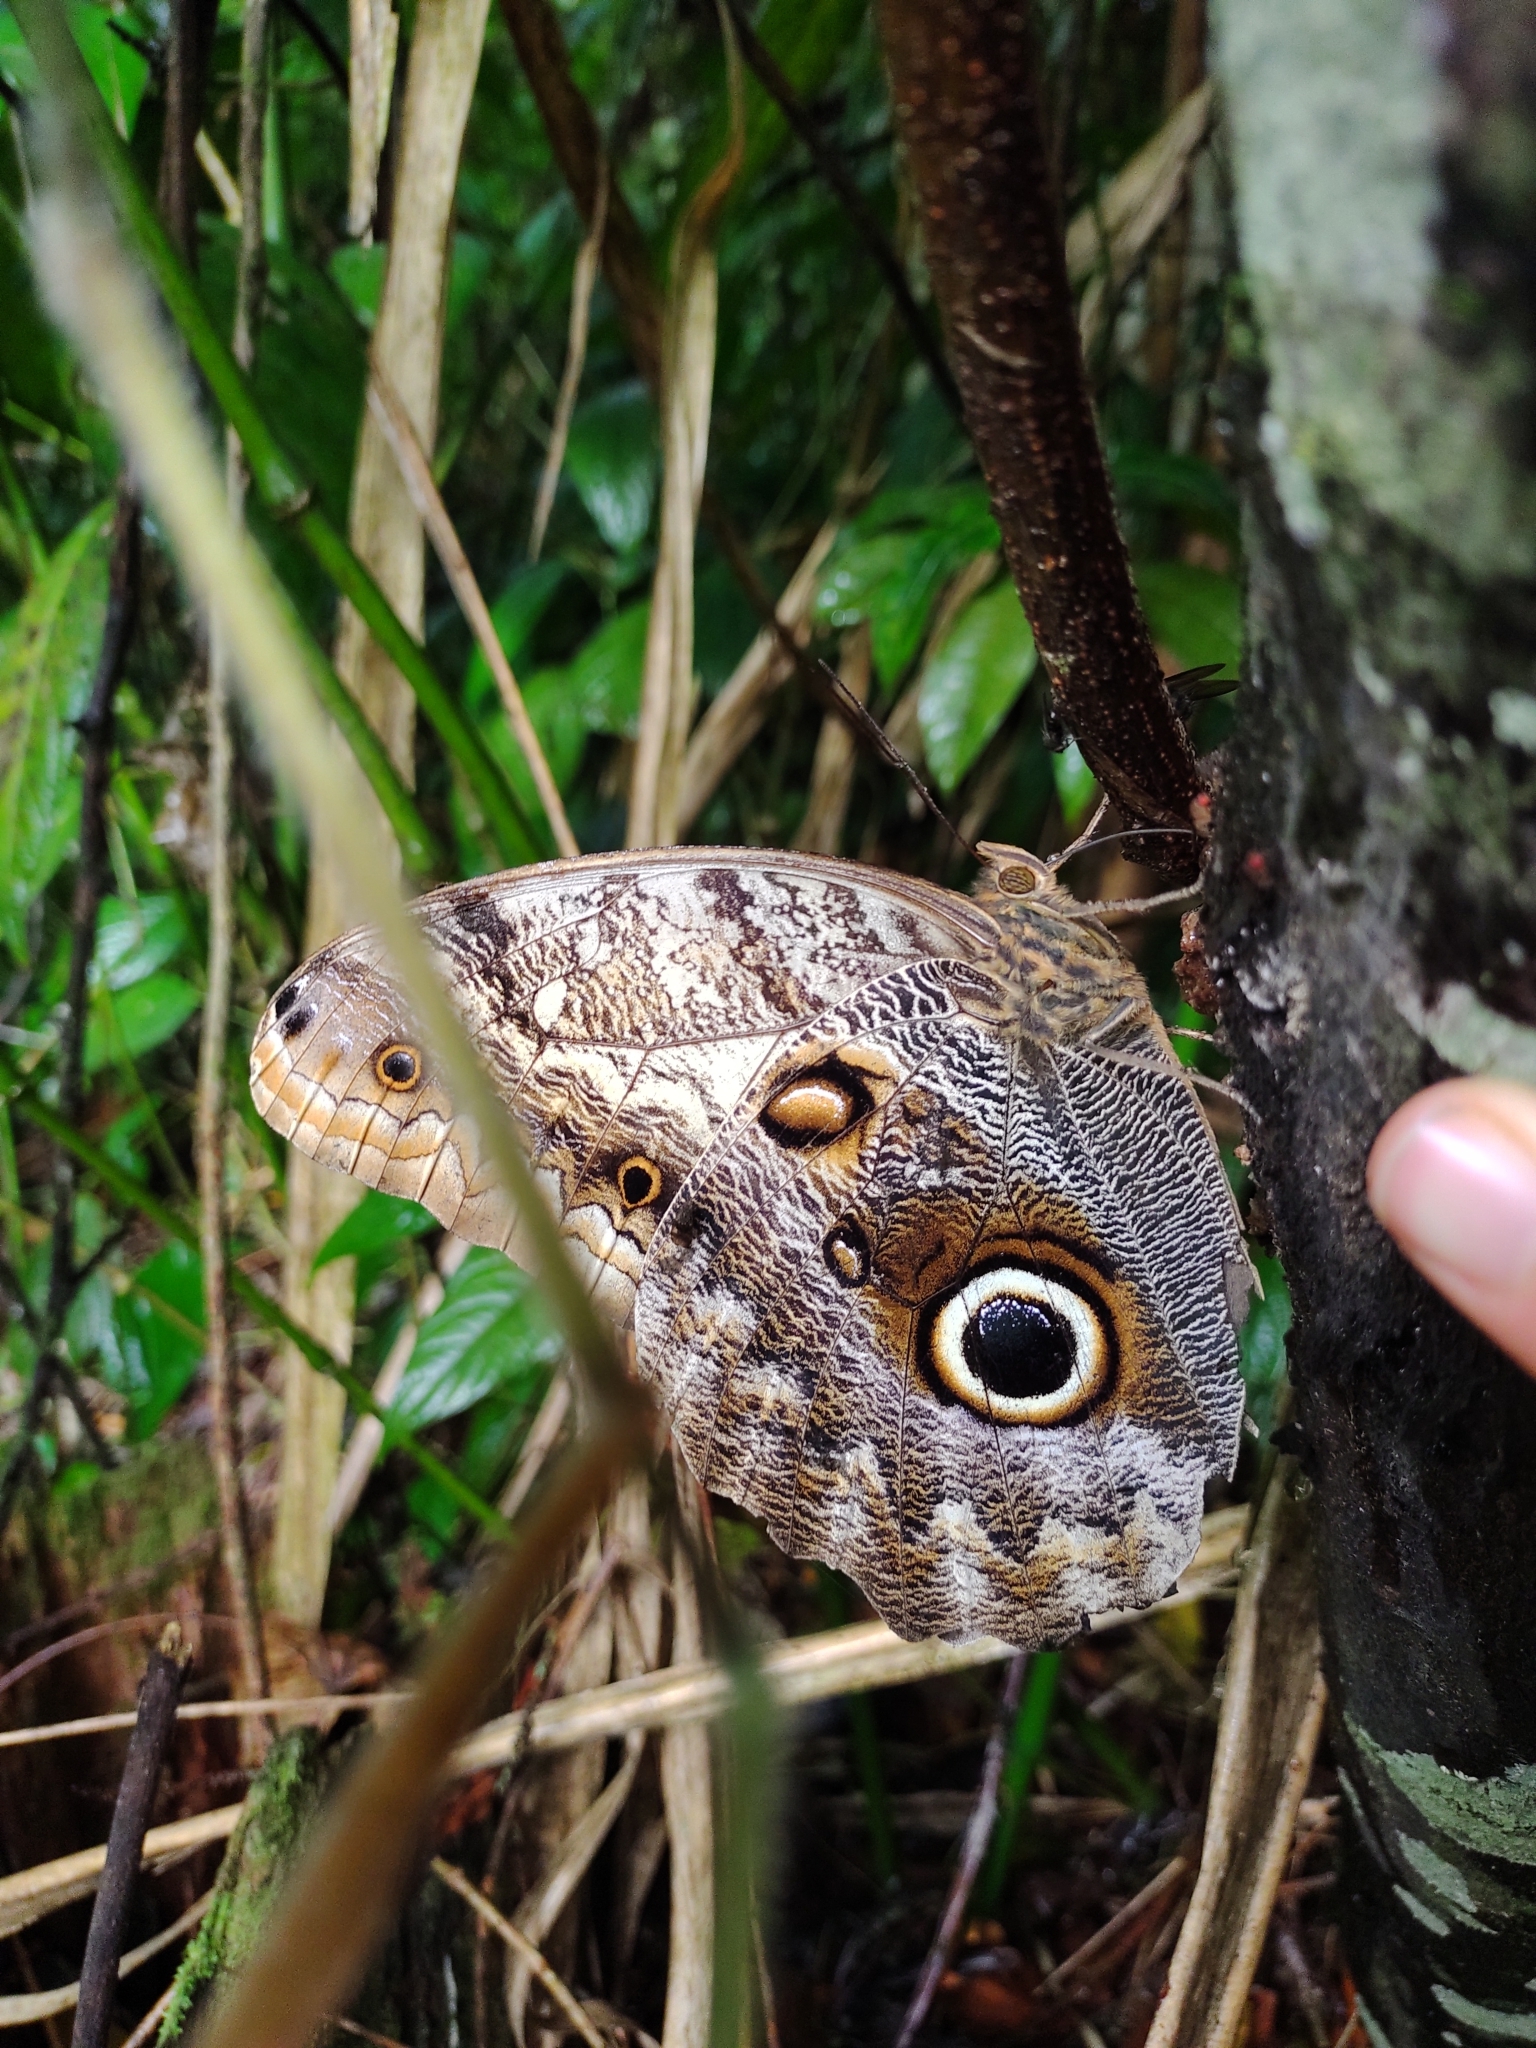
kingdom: Animalia
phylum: Arthropoda
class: Insecta
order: Lepidoptera
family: Nymphalidae
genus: Caligo
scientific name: Caligo eurilochus
